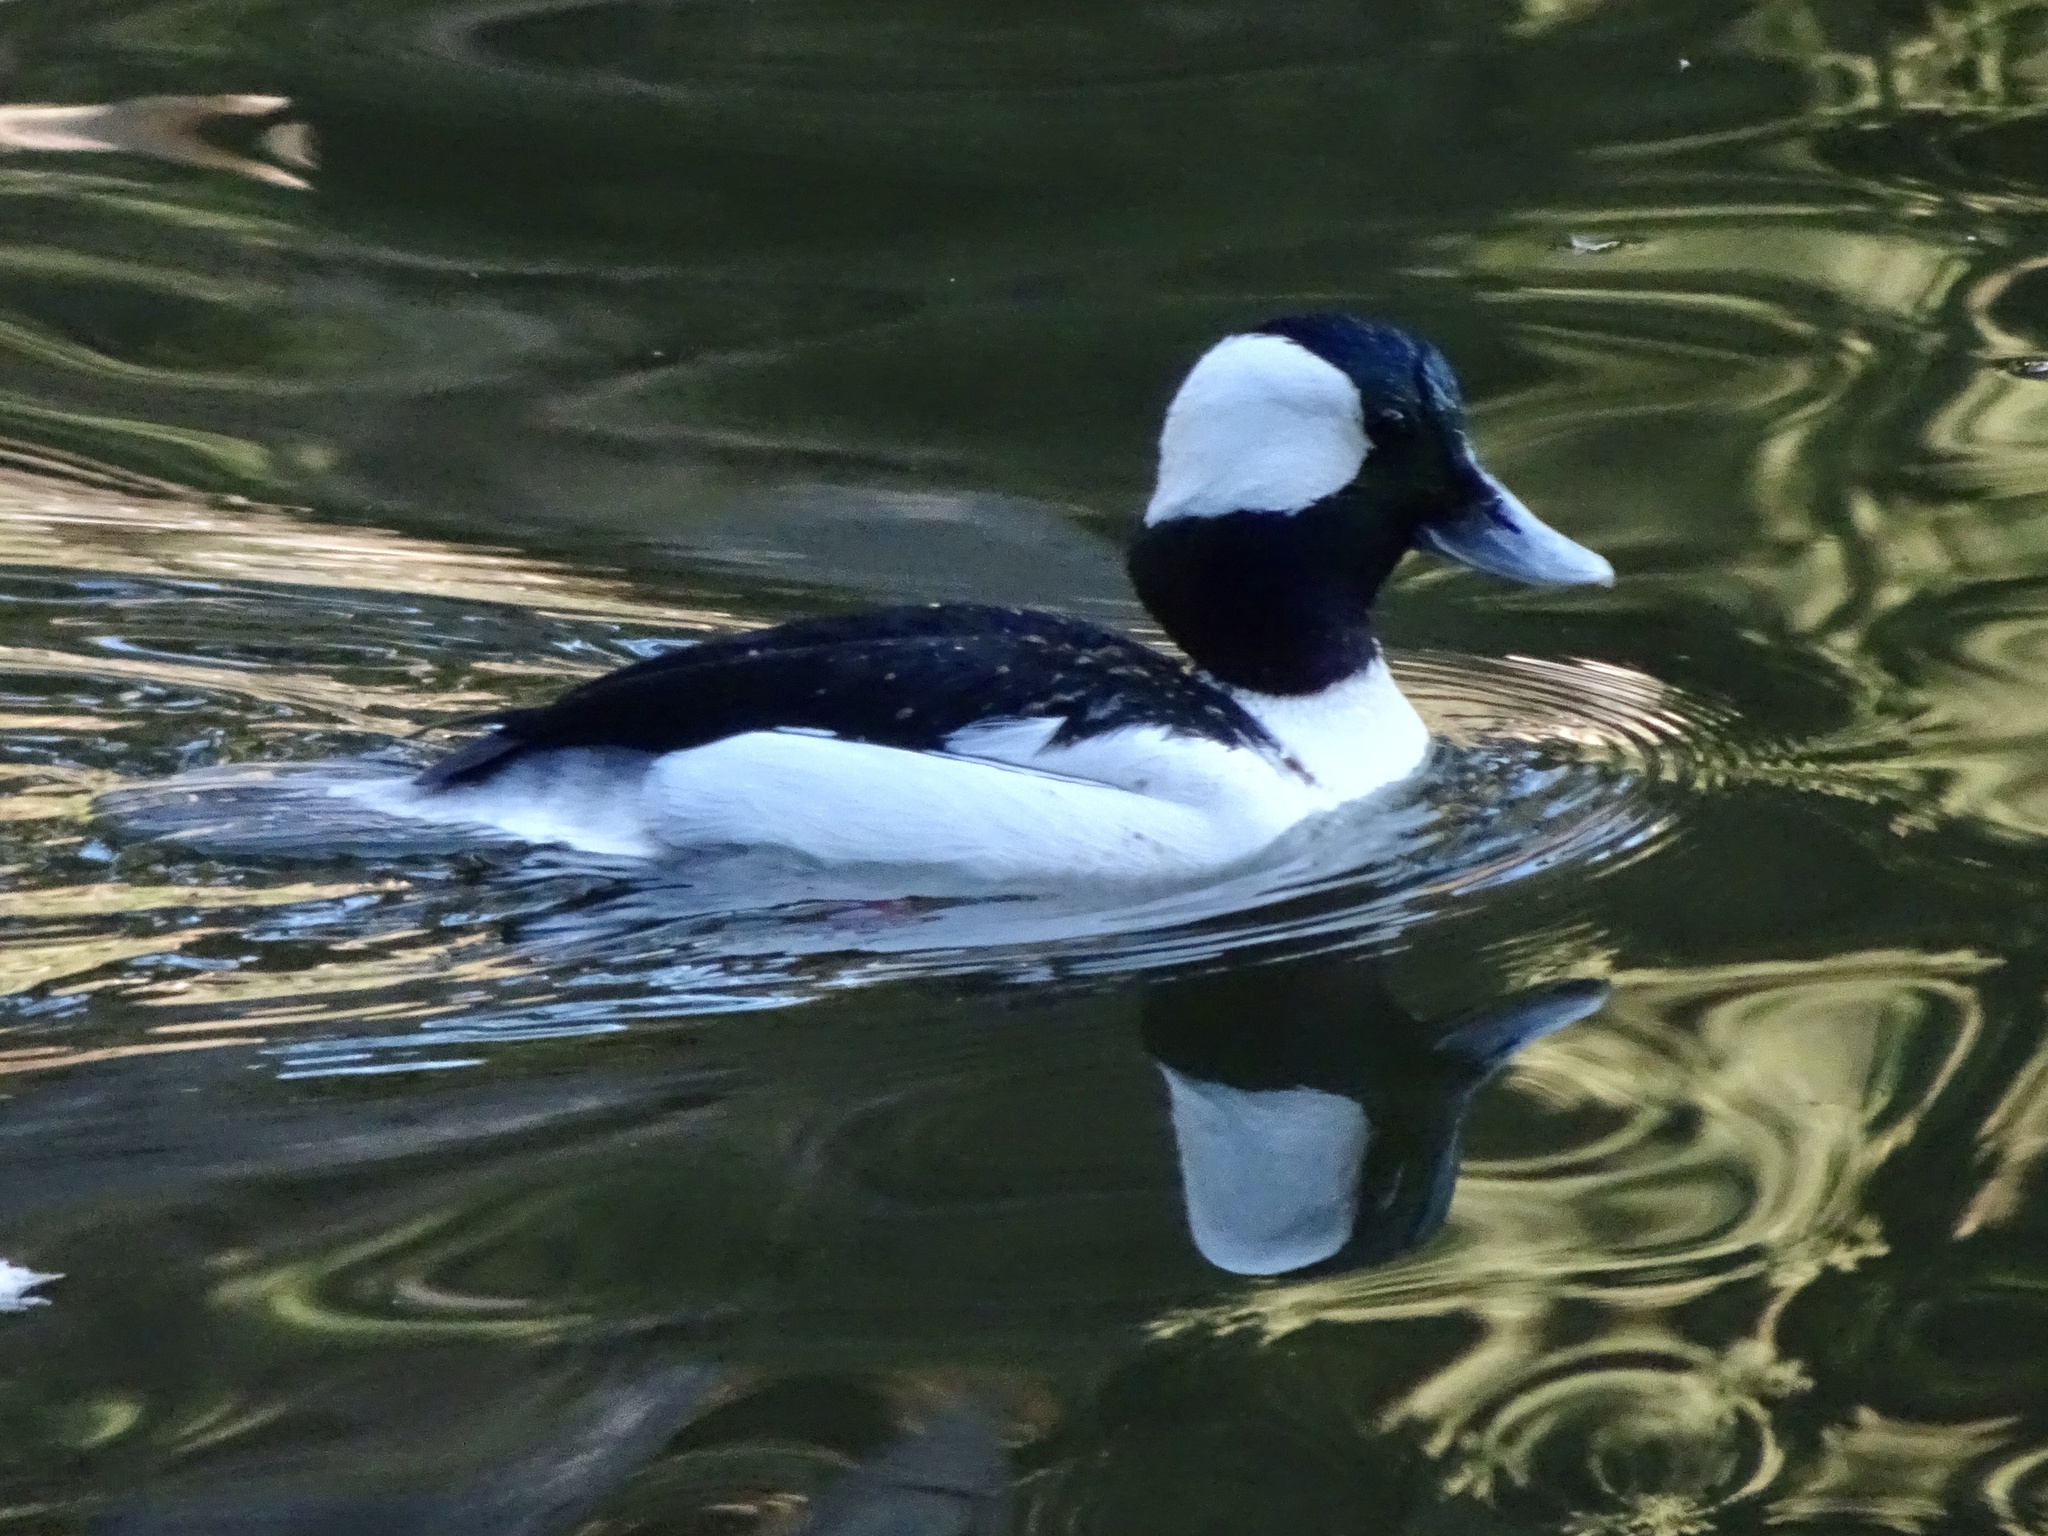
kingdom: Animalia
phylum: Chordata
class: Aves
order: Anseriformes
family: Anatidae
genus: Bucephala
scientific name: Bucephala albeola
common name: Bufflehead
